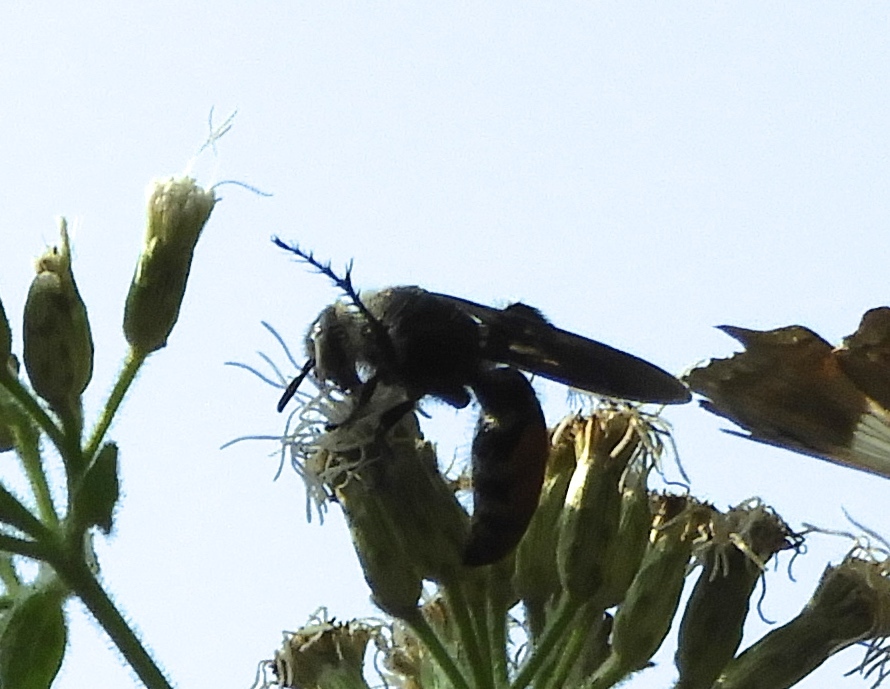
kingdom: Animalia
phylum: Arthropoda
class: Insecta
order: Hymenoptera
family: Scoliidae
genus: Dielis
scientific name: Dielis tolteca
